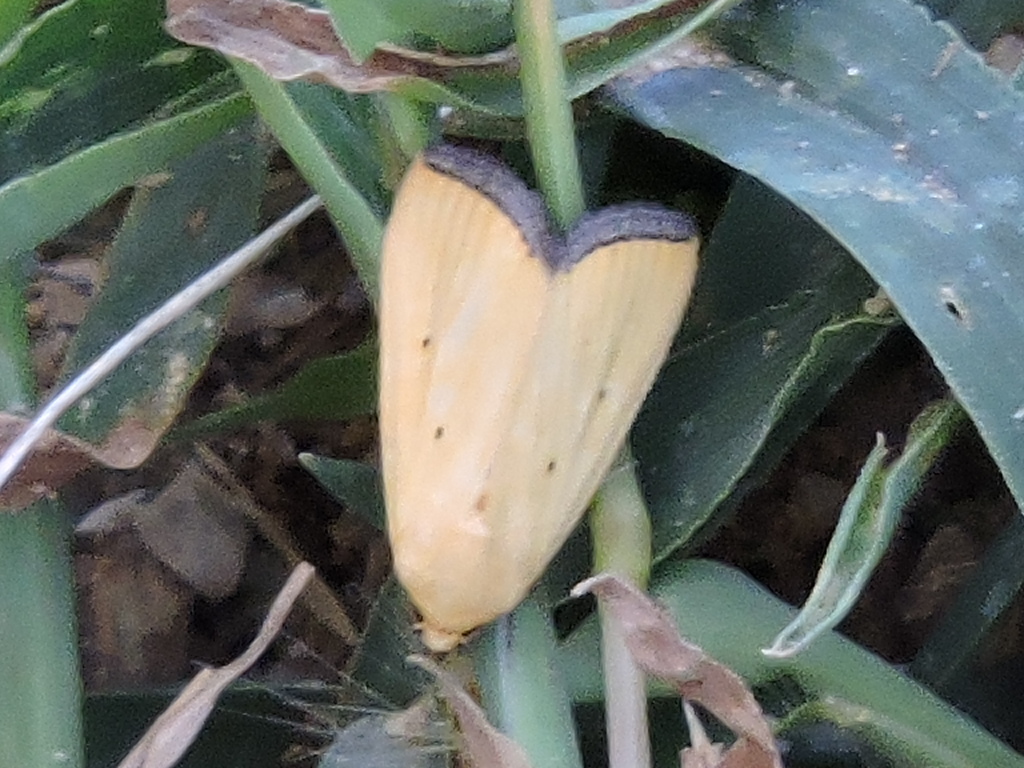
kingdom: Animalia
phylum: Arthropoda
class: Insecta
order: Lepidoptera
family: Noctuidae
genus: Marimatha
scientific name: Marimatha nigrofimbria
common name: Black-bordered lemon moth
